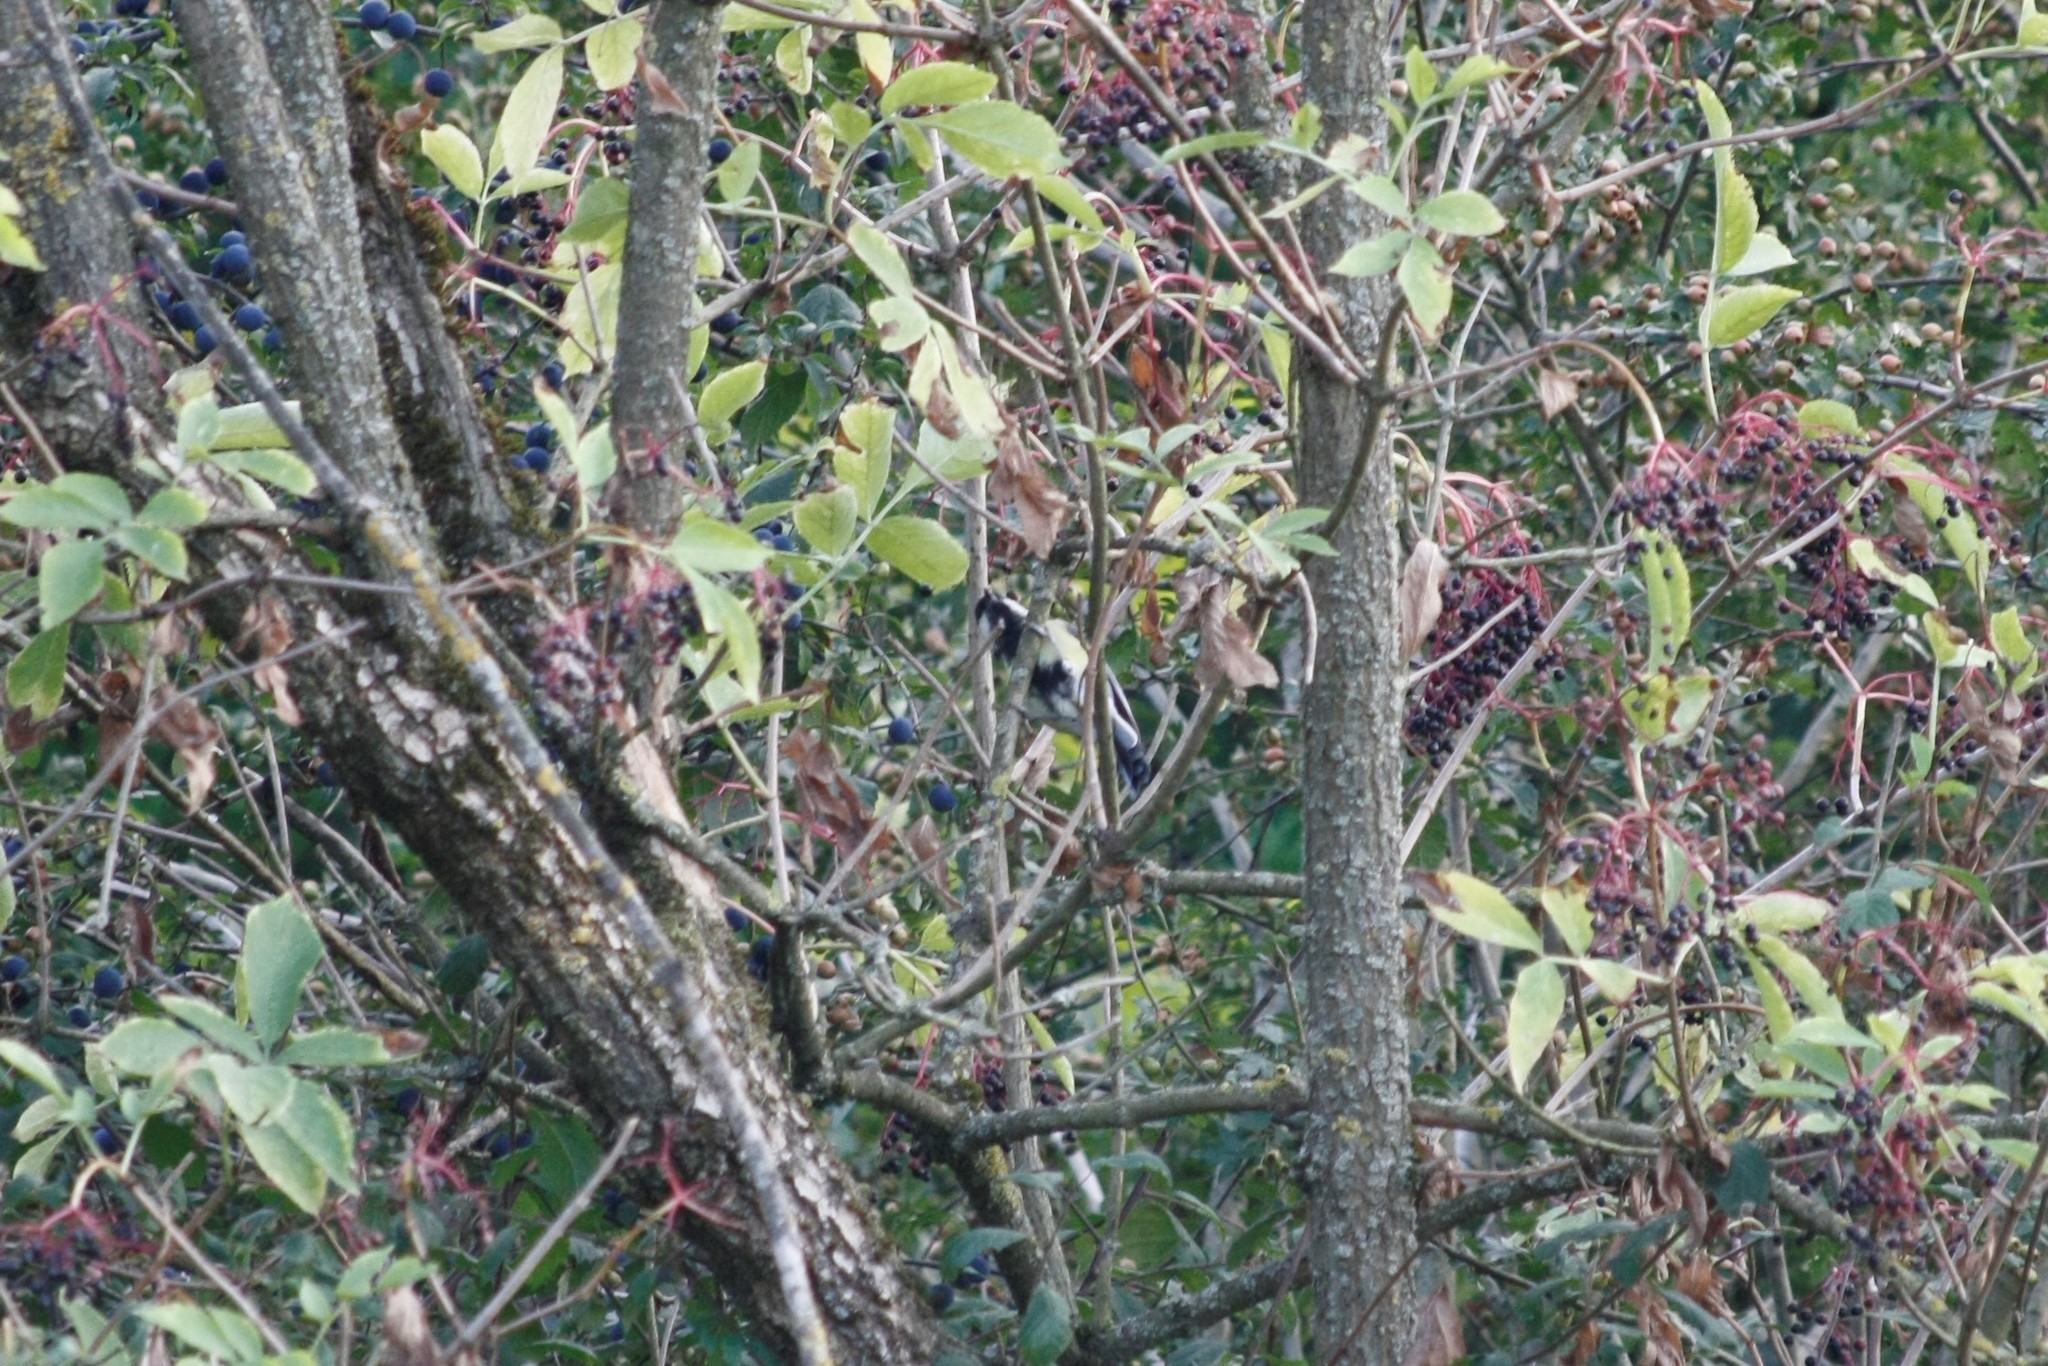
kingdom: Animalia
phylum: Chordata
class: Aves
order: Passeriformes
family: Paridae
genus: Parus
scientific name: Parus major
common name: Great tit
